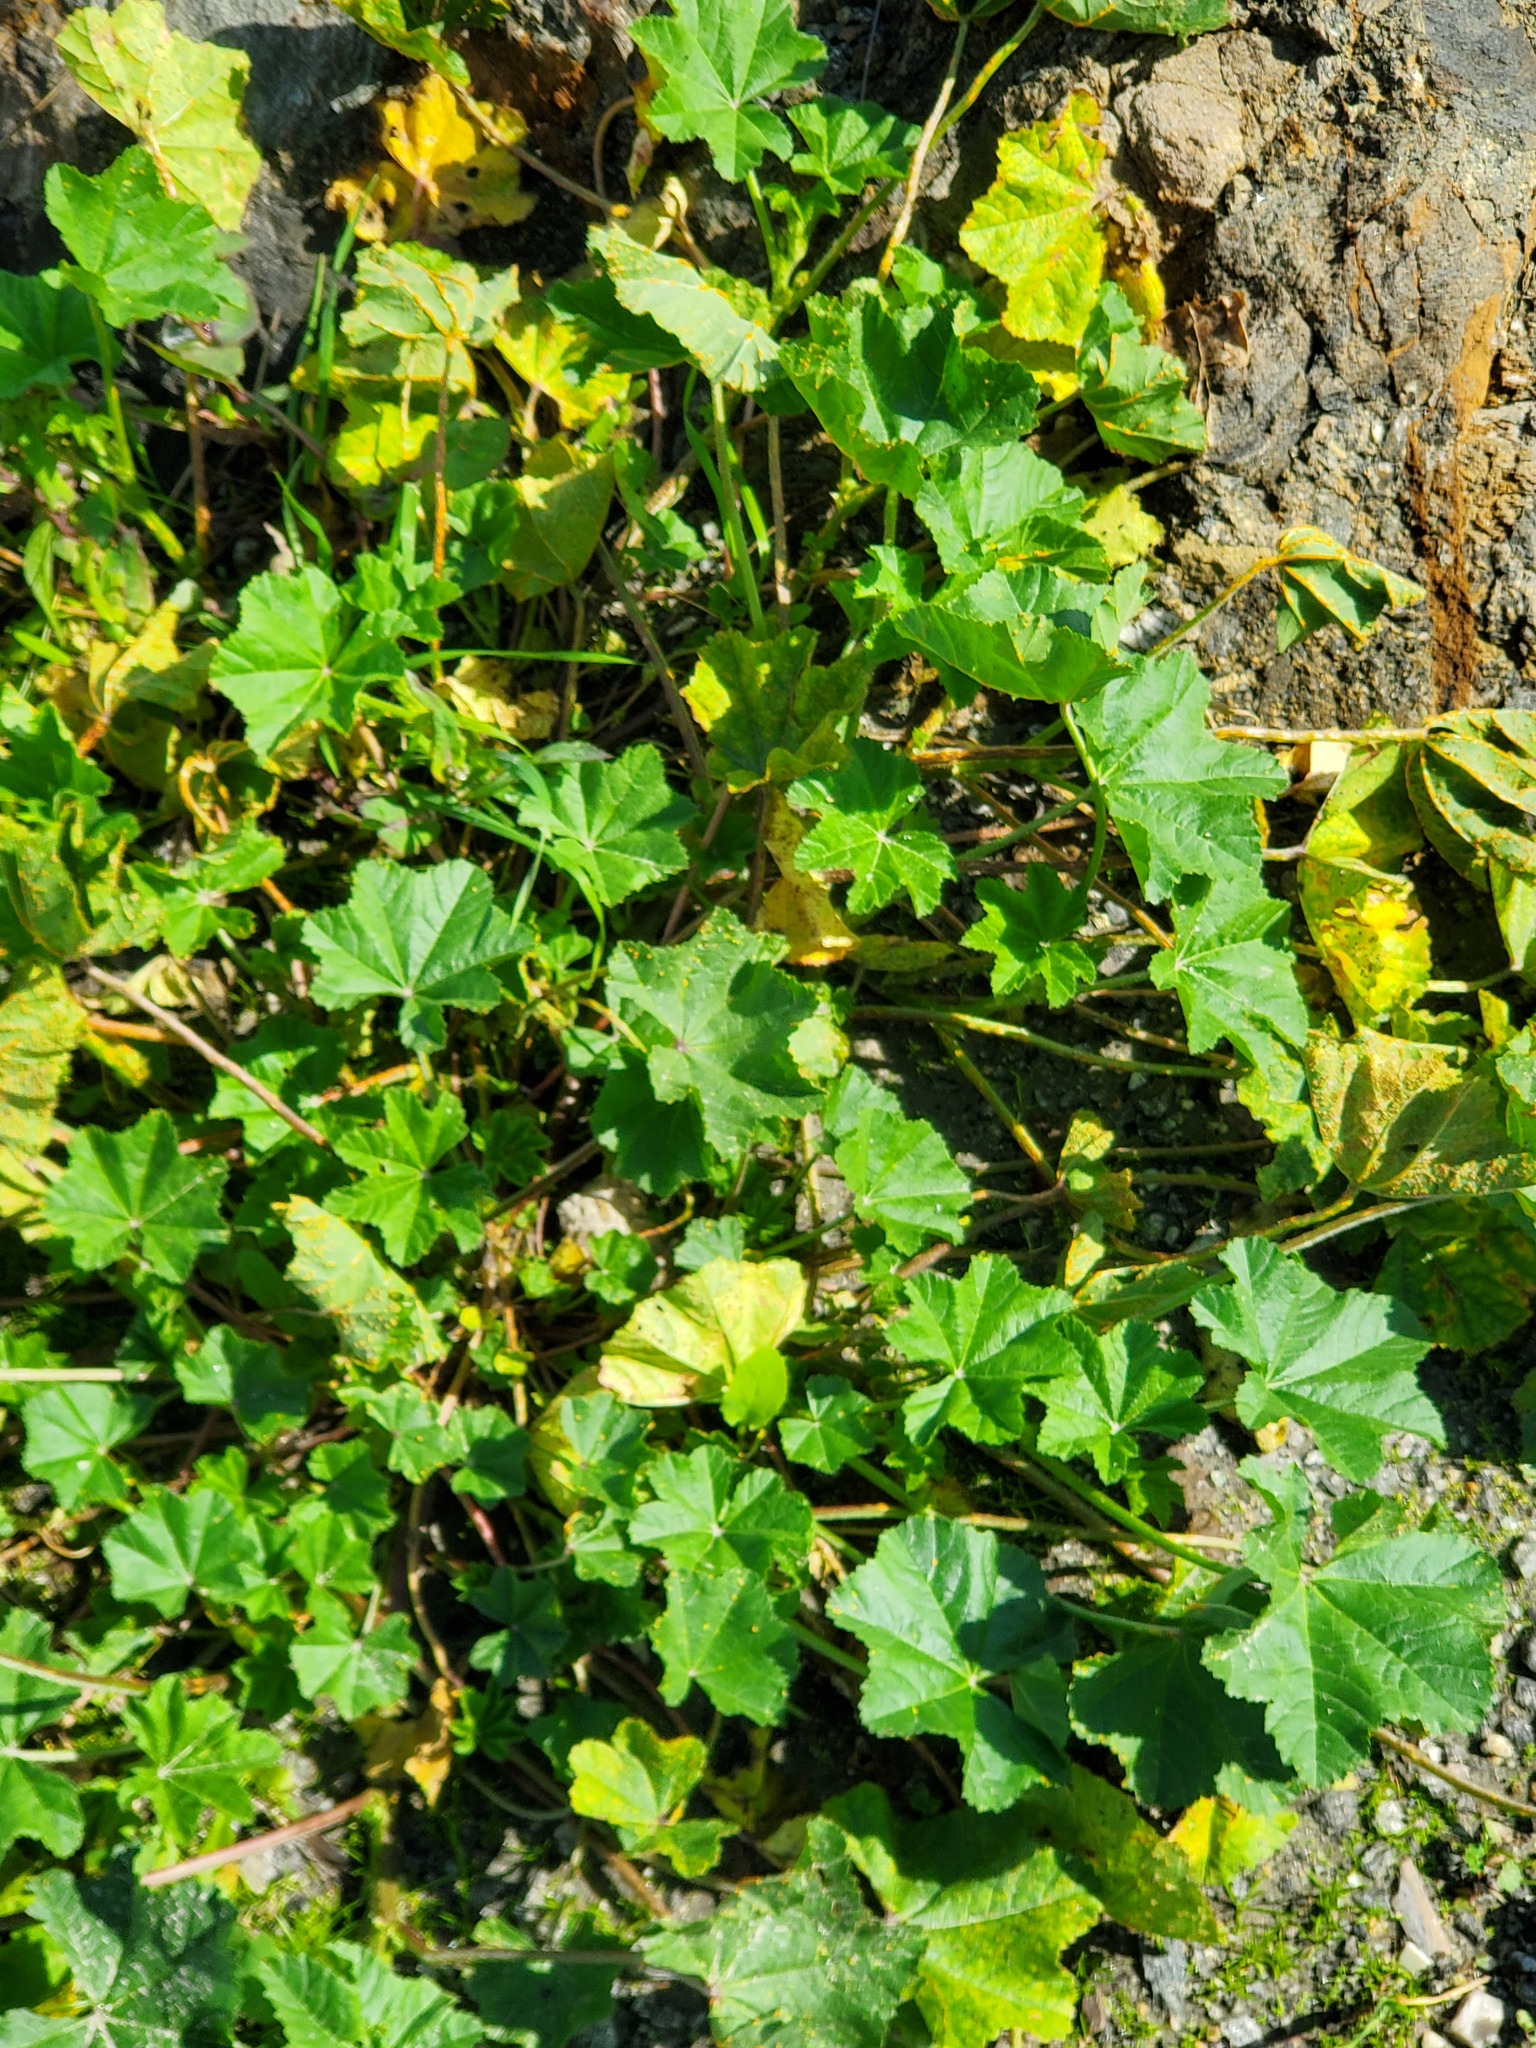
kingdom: Plantae
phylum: Tracheophyta
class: Magnoliopsida
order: Malvales
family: Malvaceae
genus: Malva
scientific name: Malva
